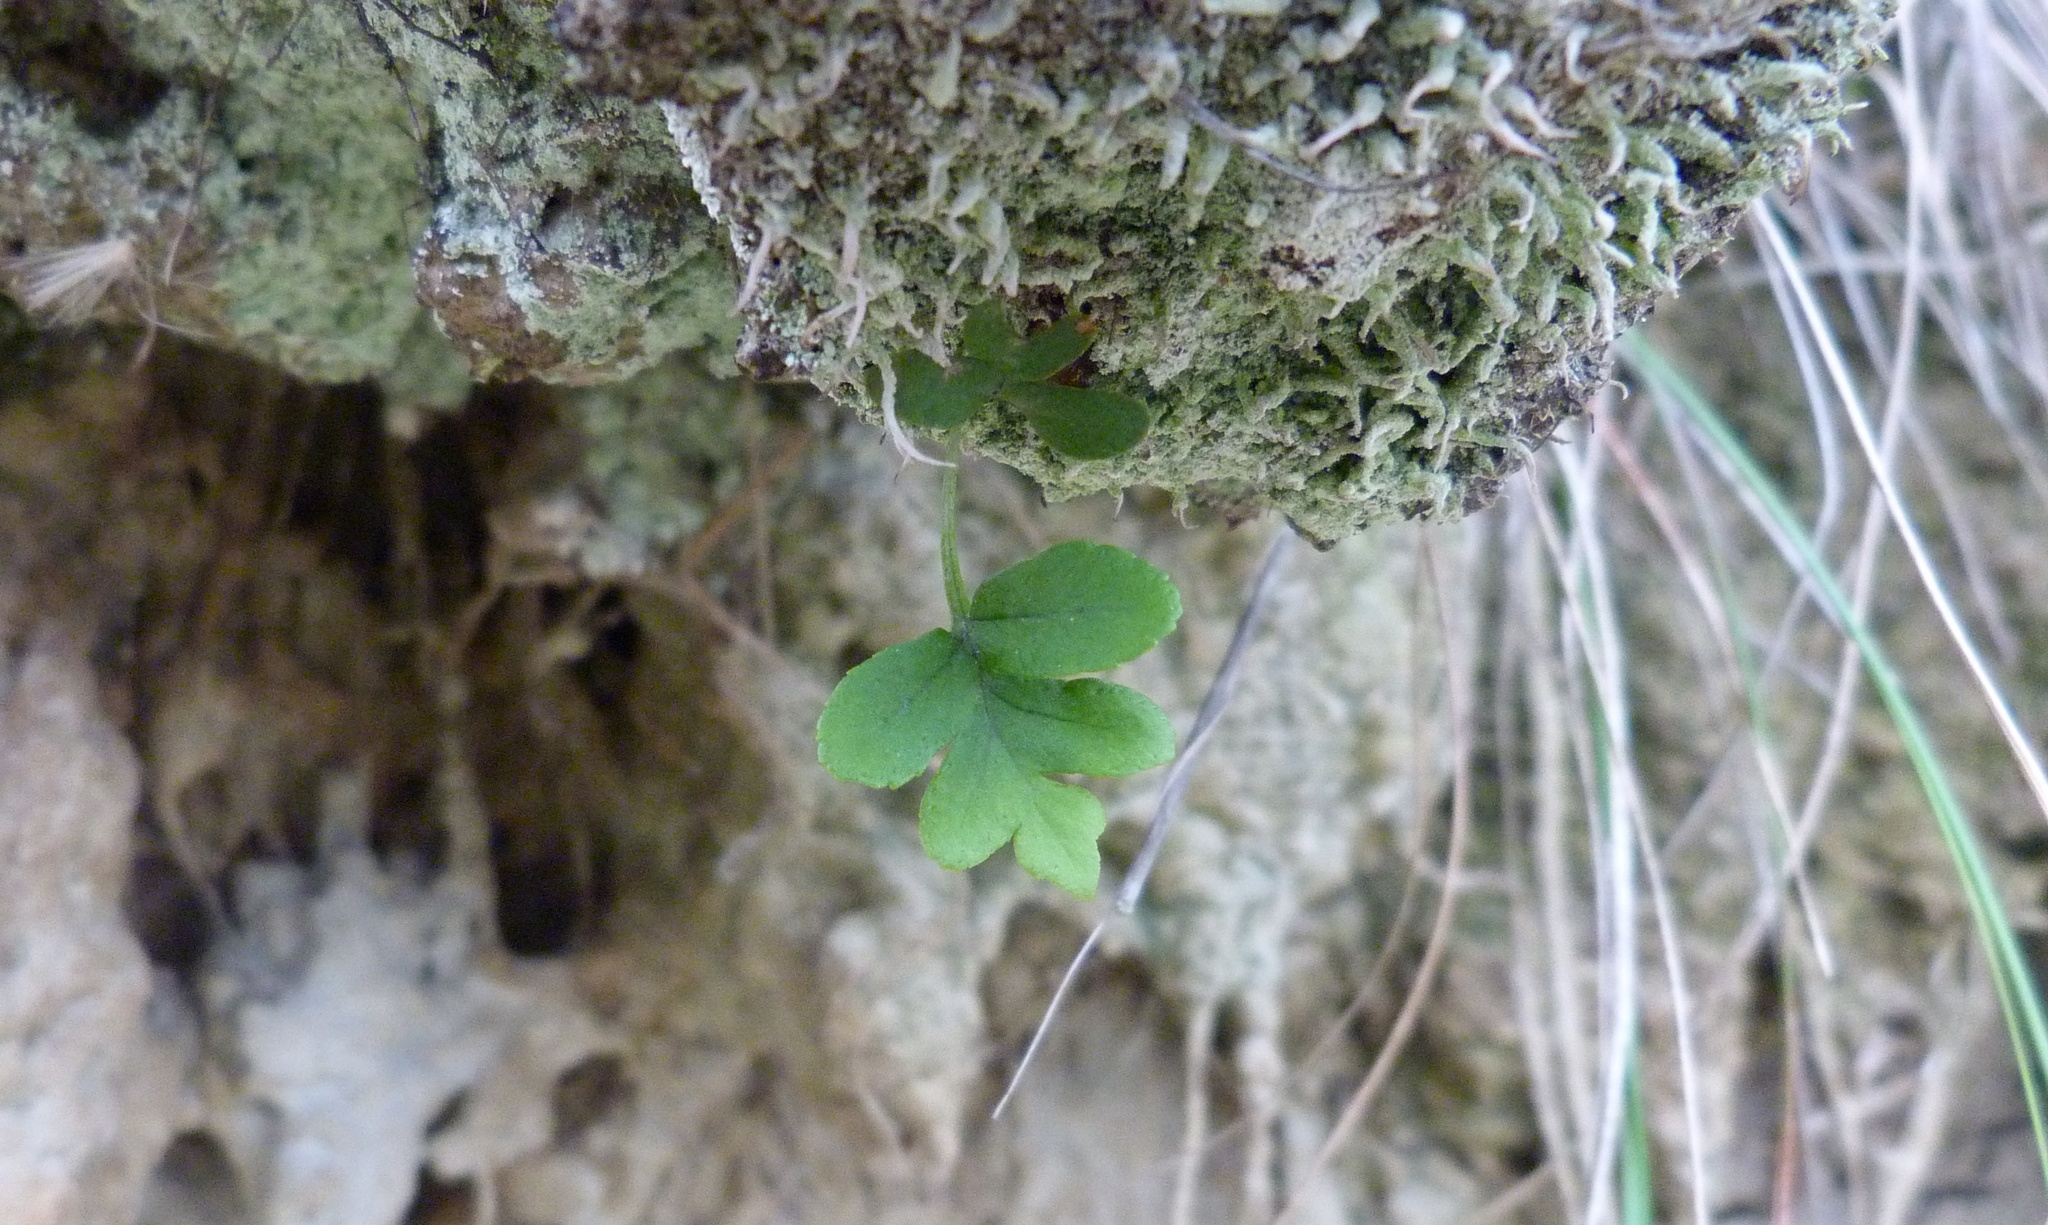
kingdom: Plantae
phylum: Tracheophyta
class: Polypodiopsida
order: Polypodiales
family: Polypodiaceae
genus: Polypodium
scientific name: Polypodium vulgare
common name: Common polypody
